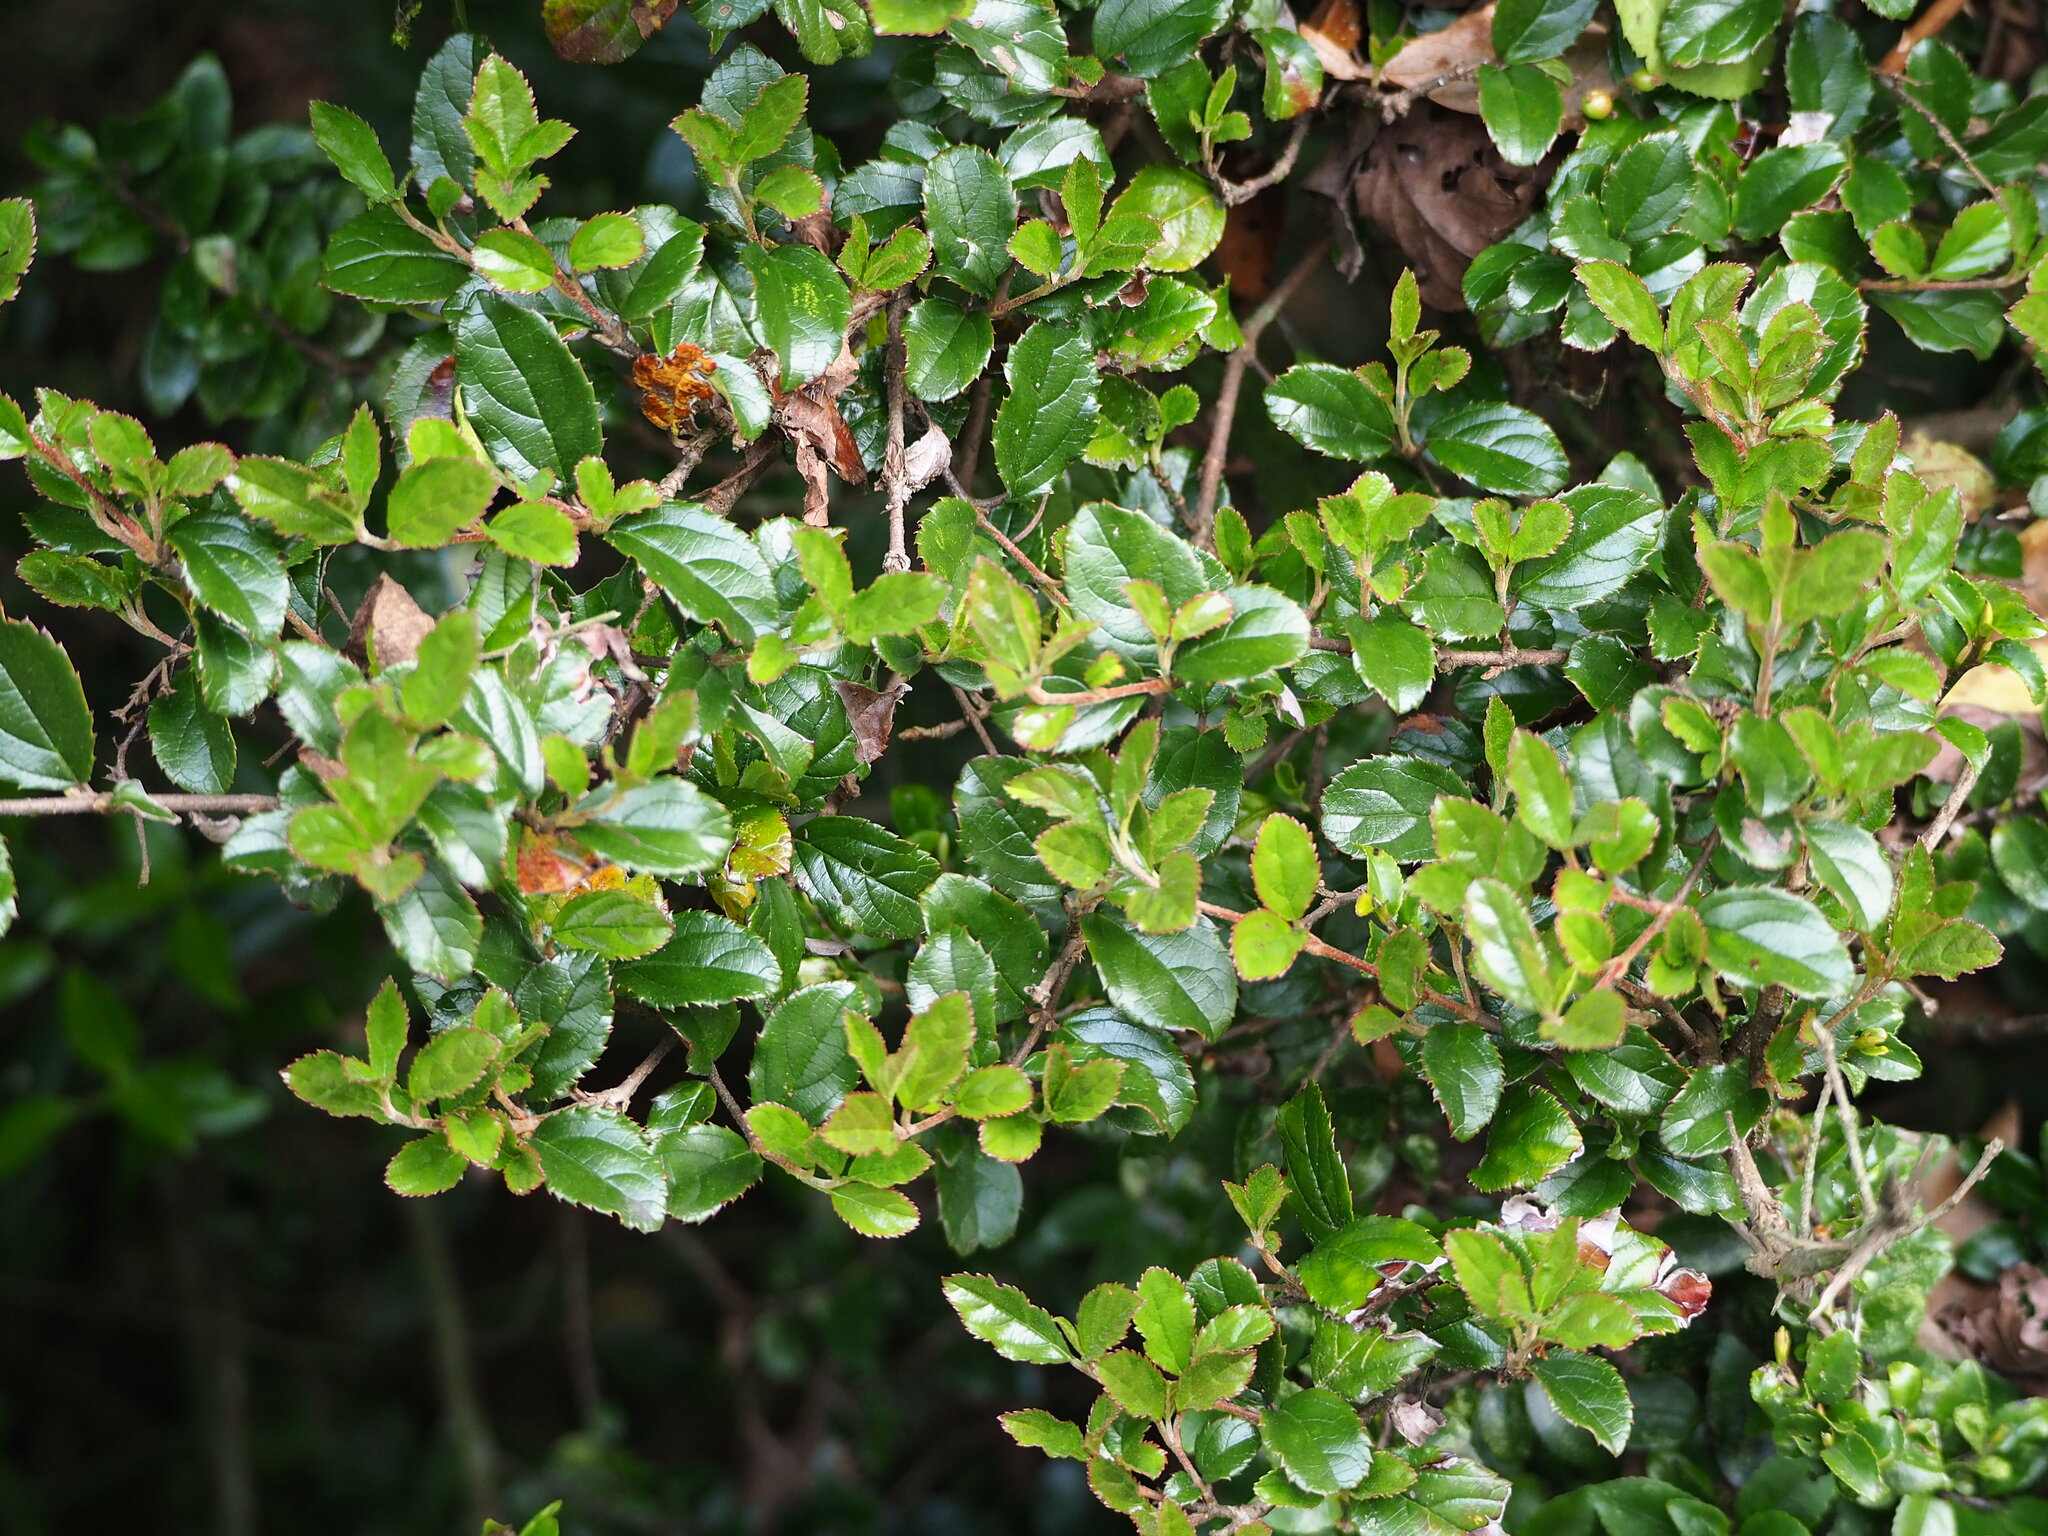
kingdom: Plantae
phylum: Tracheophyta
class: Magnoliopsida
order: Dipsacales
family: Viburnaceae
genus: Viburnum
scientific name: Viburnum taitoense
